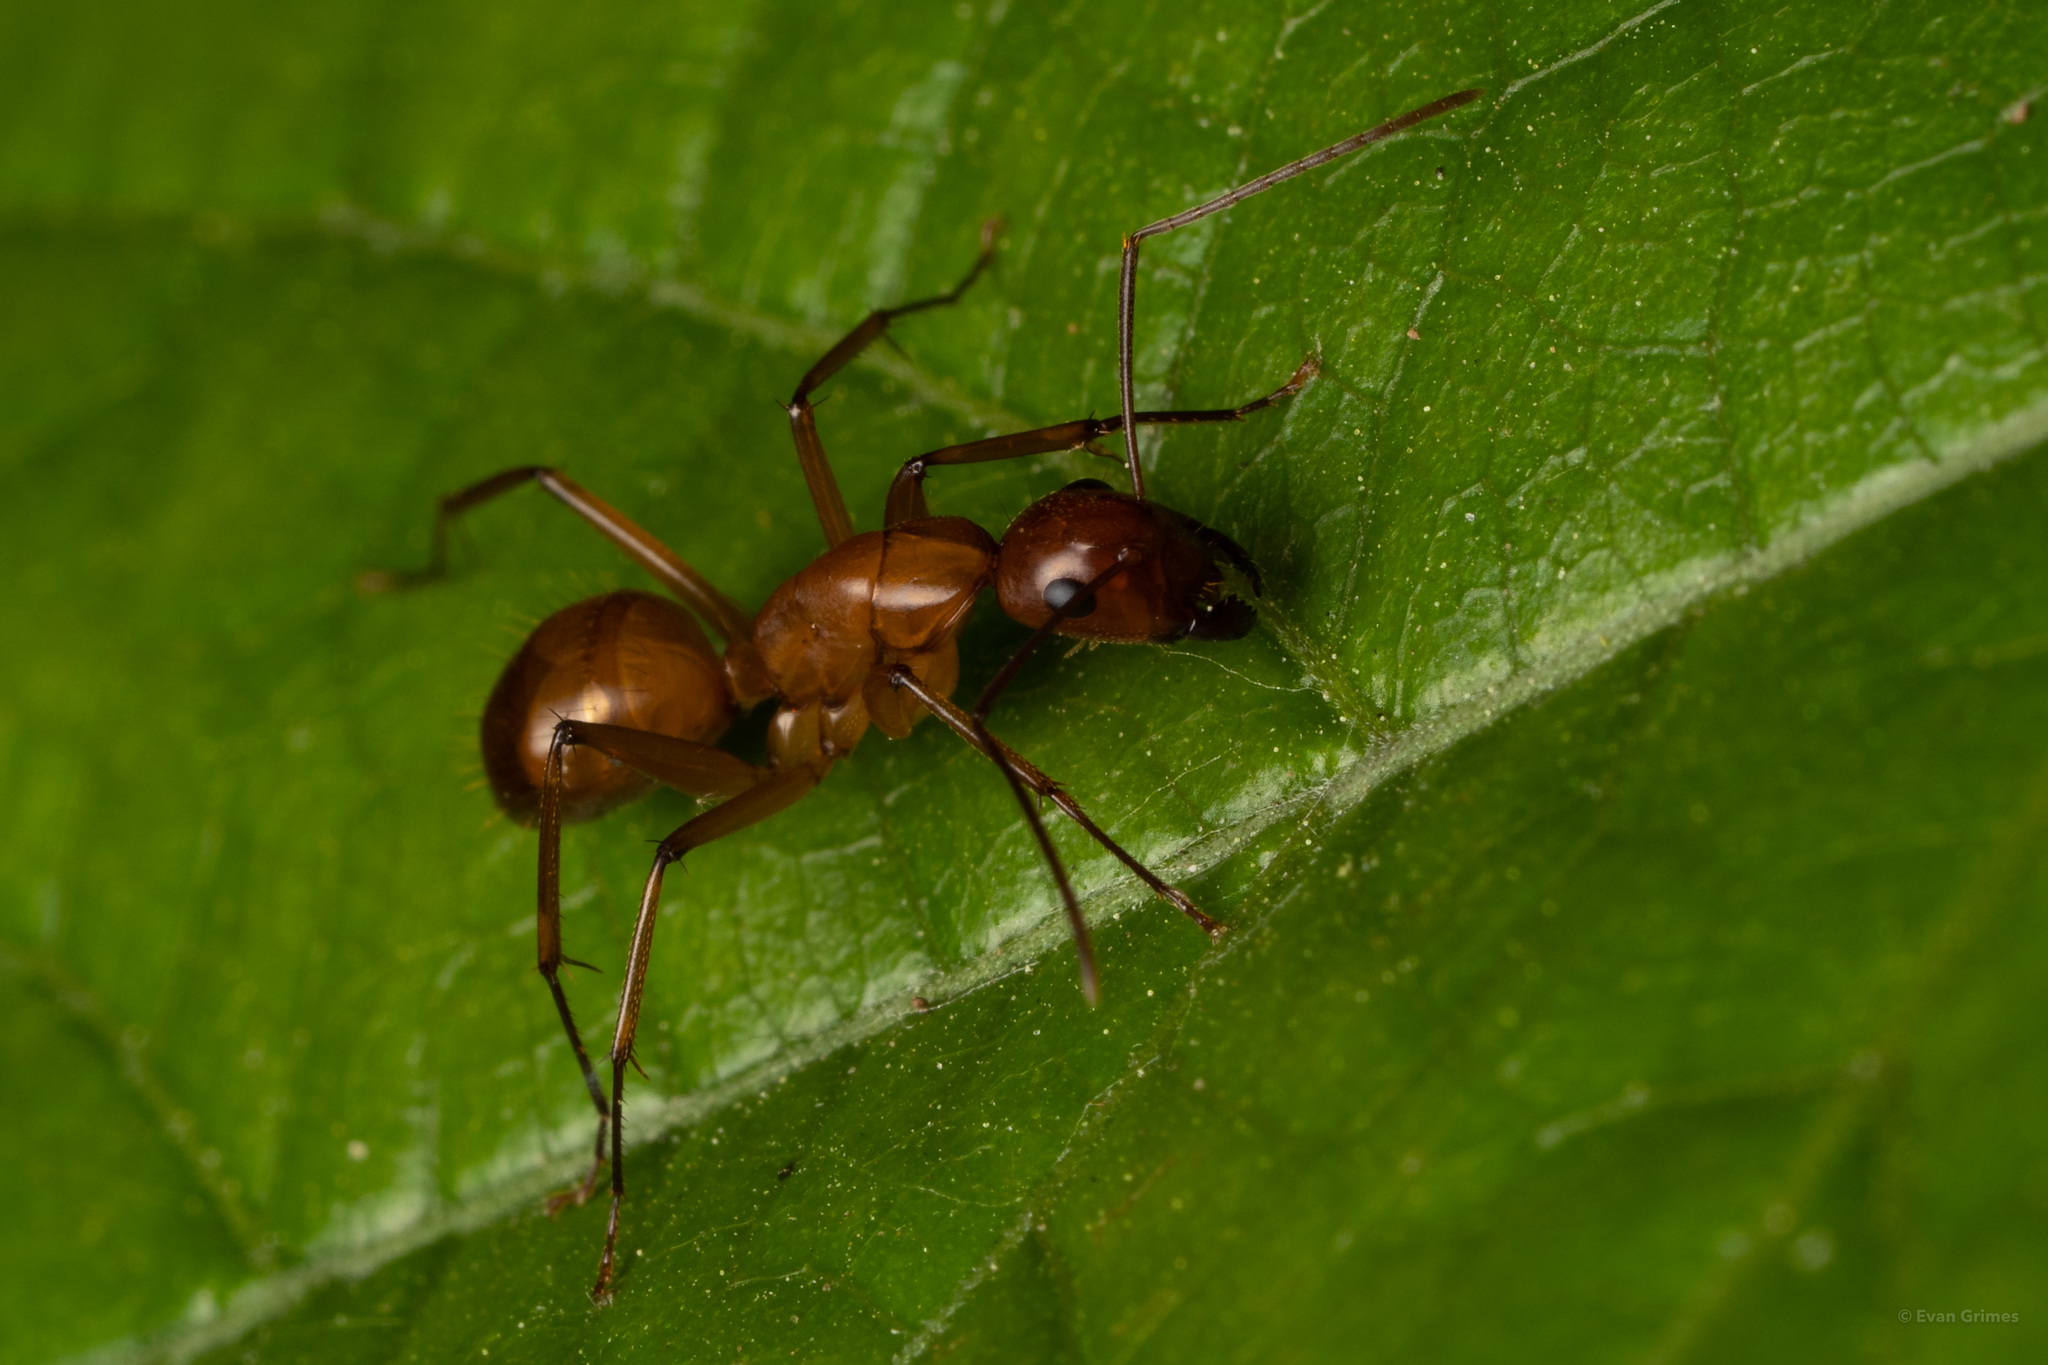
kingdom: Animalia
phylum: Arthropoda
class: Insecta
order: Hymenoptera
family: Formicidae
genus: Camponotus
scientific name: Camponotus castaneus
